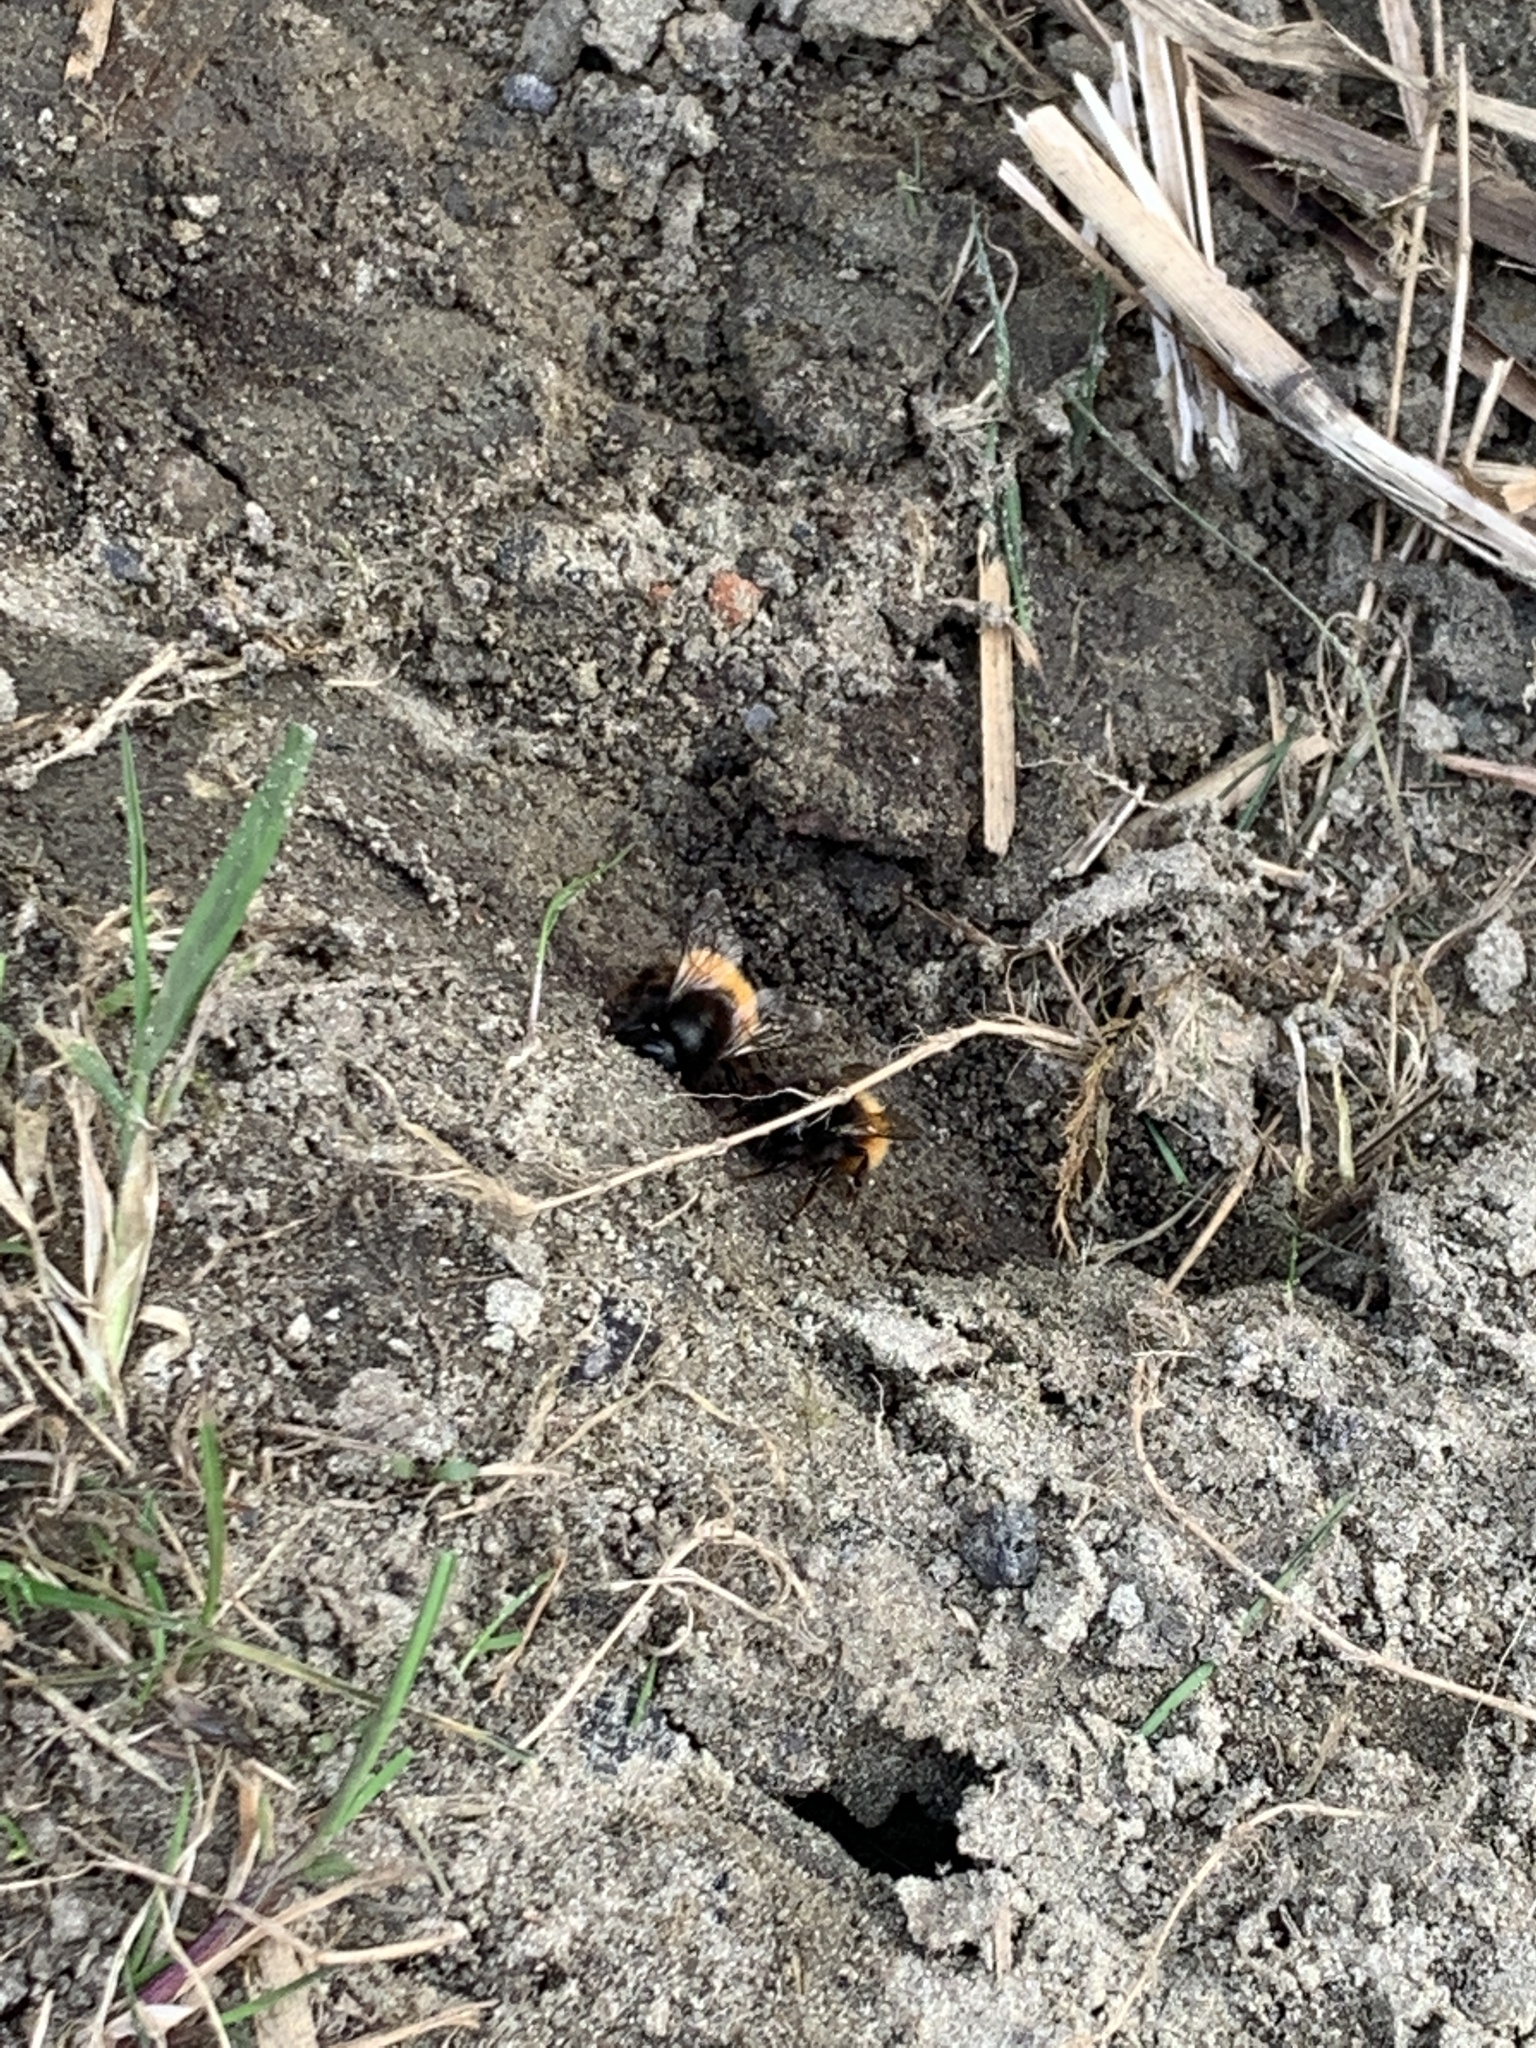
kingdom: Animalia
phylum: Arthropoda
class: Insecta
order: Hymenoptera
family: Megachilidae
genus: Osmia
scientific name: Osmia cornuta
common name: Mason bee
